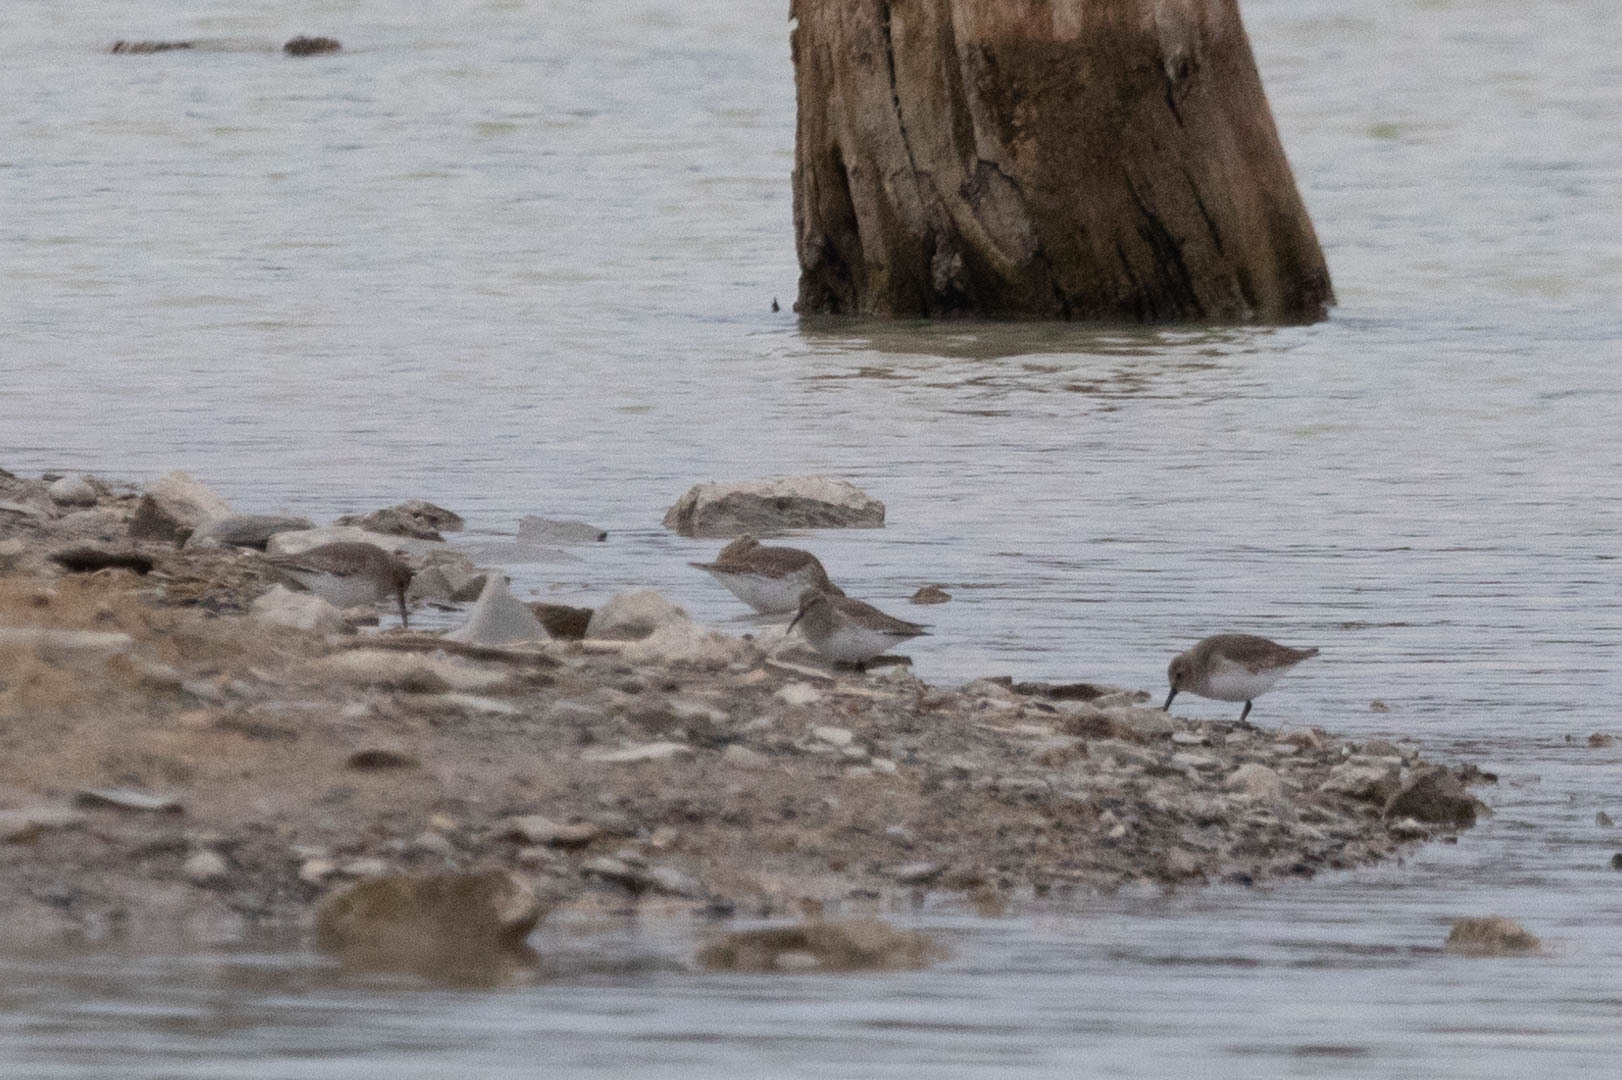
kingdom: Animalia
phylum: Chordata
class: Aves
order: Charadriiformes
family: Scolopacidae
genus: Calidris
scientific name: Calidris alpina
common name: Dunlin
